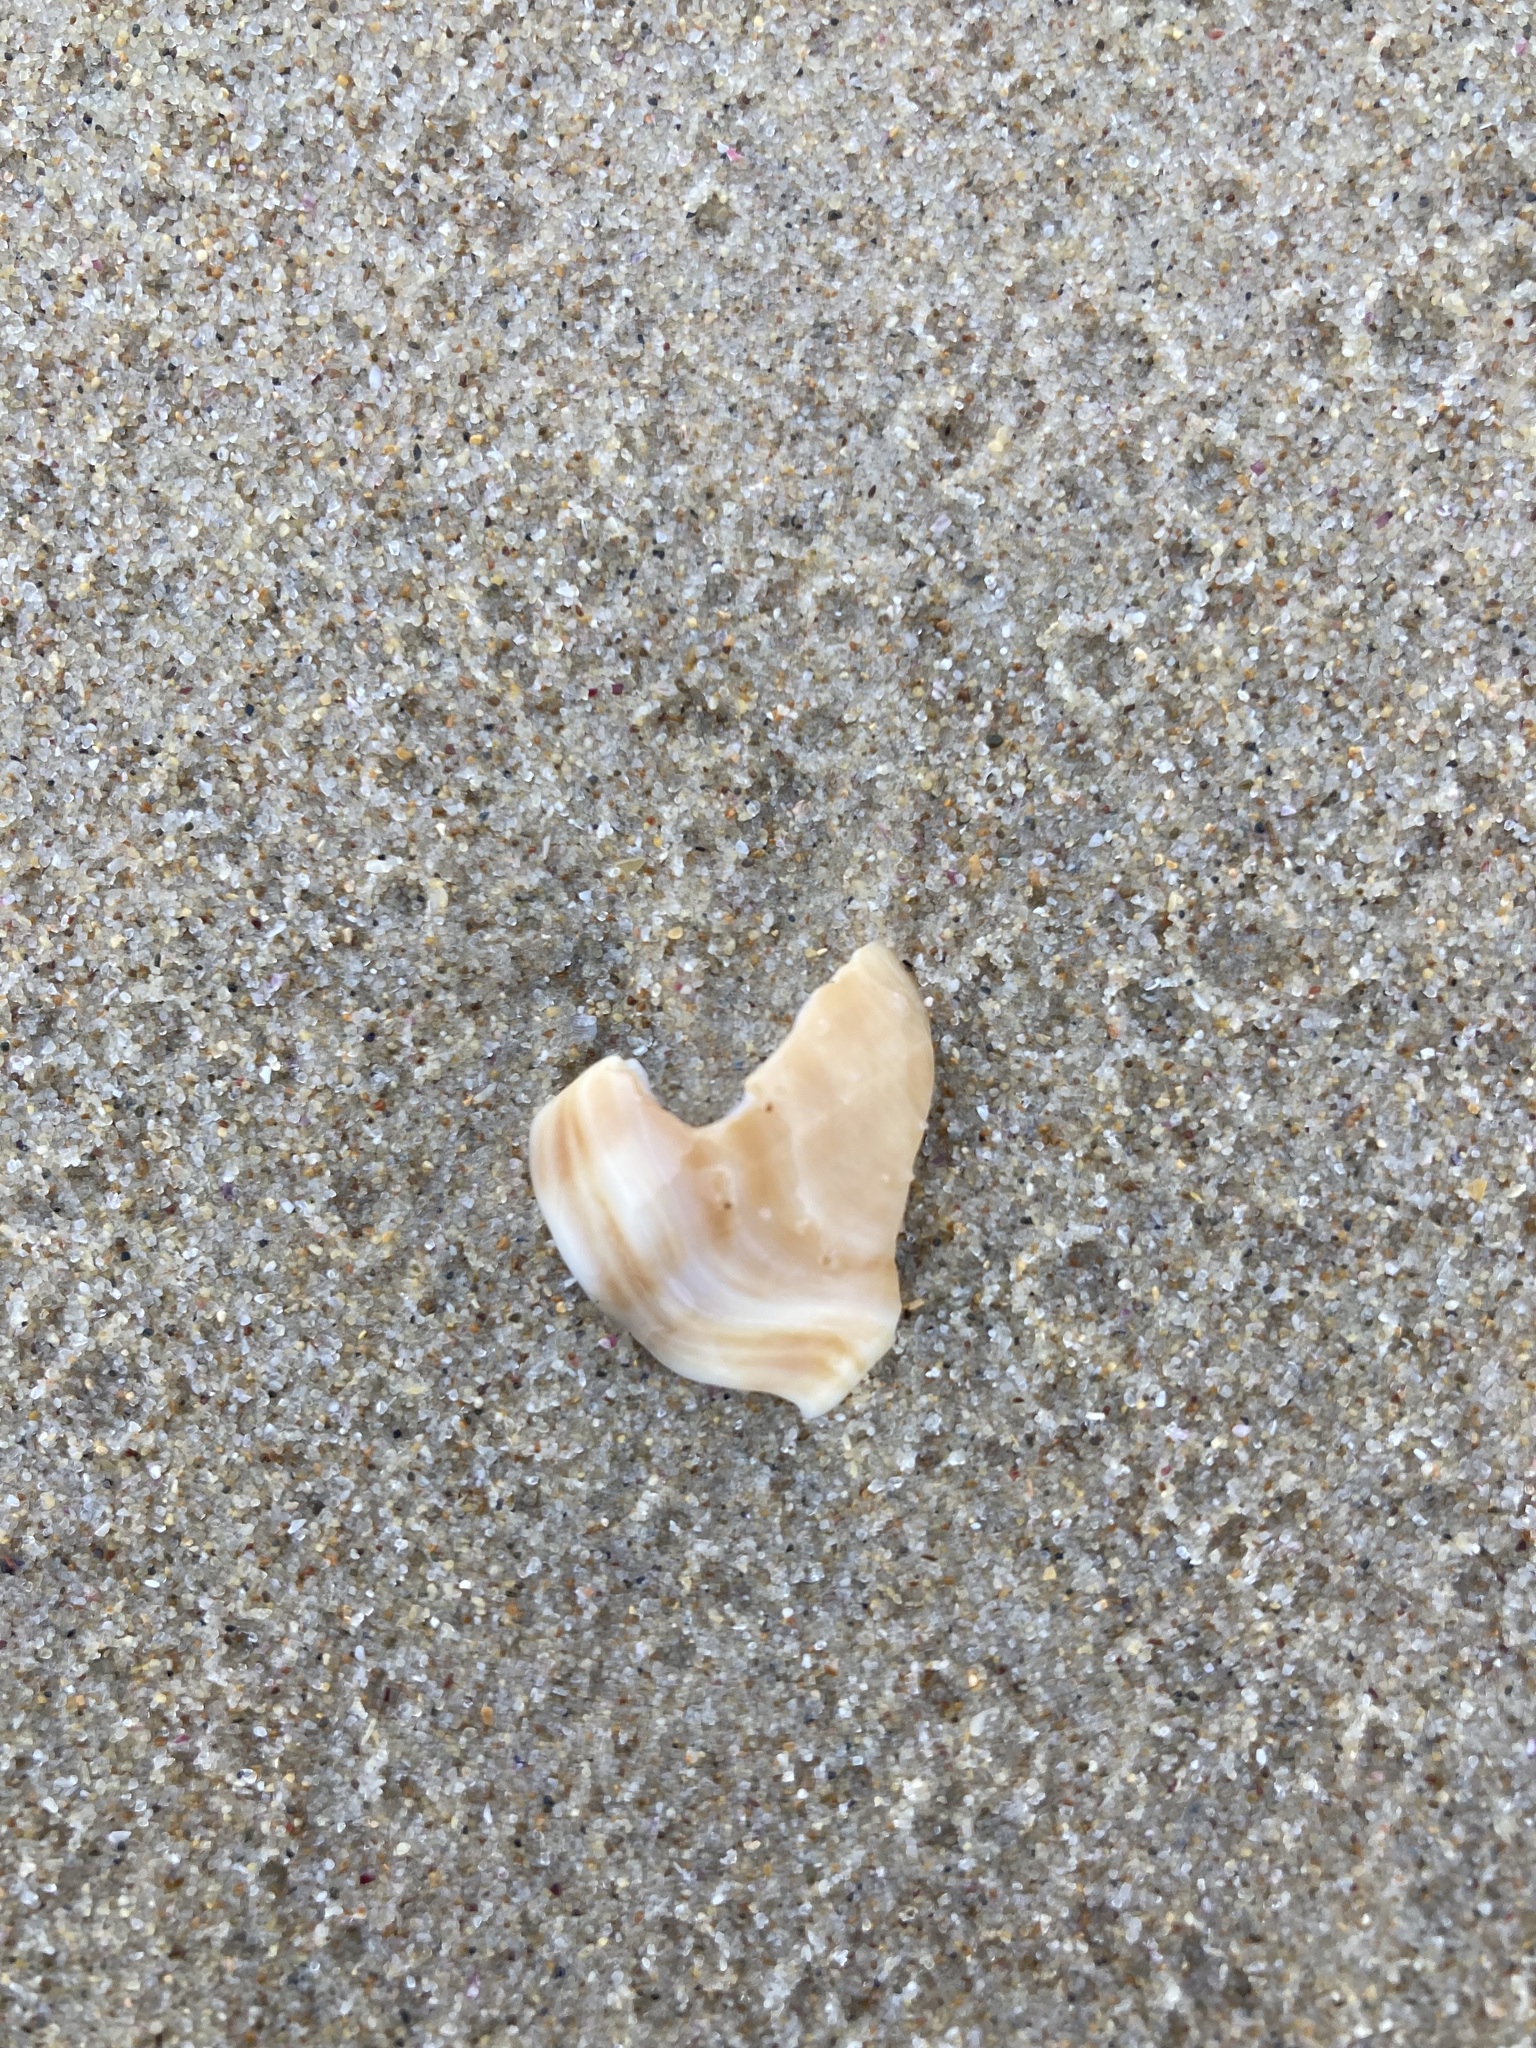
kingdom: Animalia
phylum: Mollusca
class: Gastropoda
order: Littorinimorpha
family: Struthiolariidae
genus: Tylospira
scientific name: Tylospira scutulata
